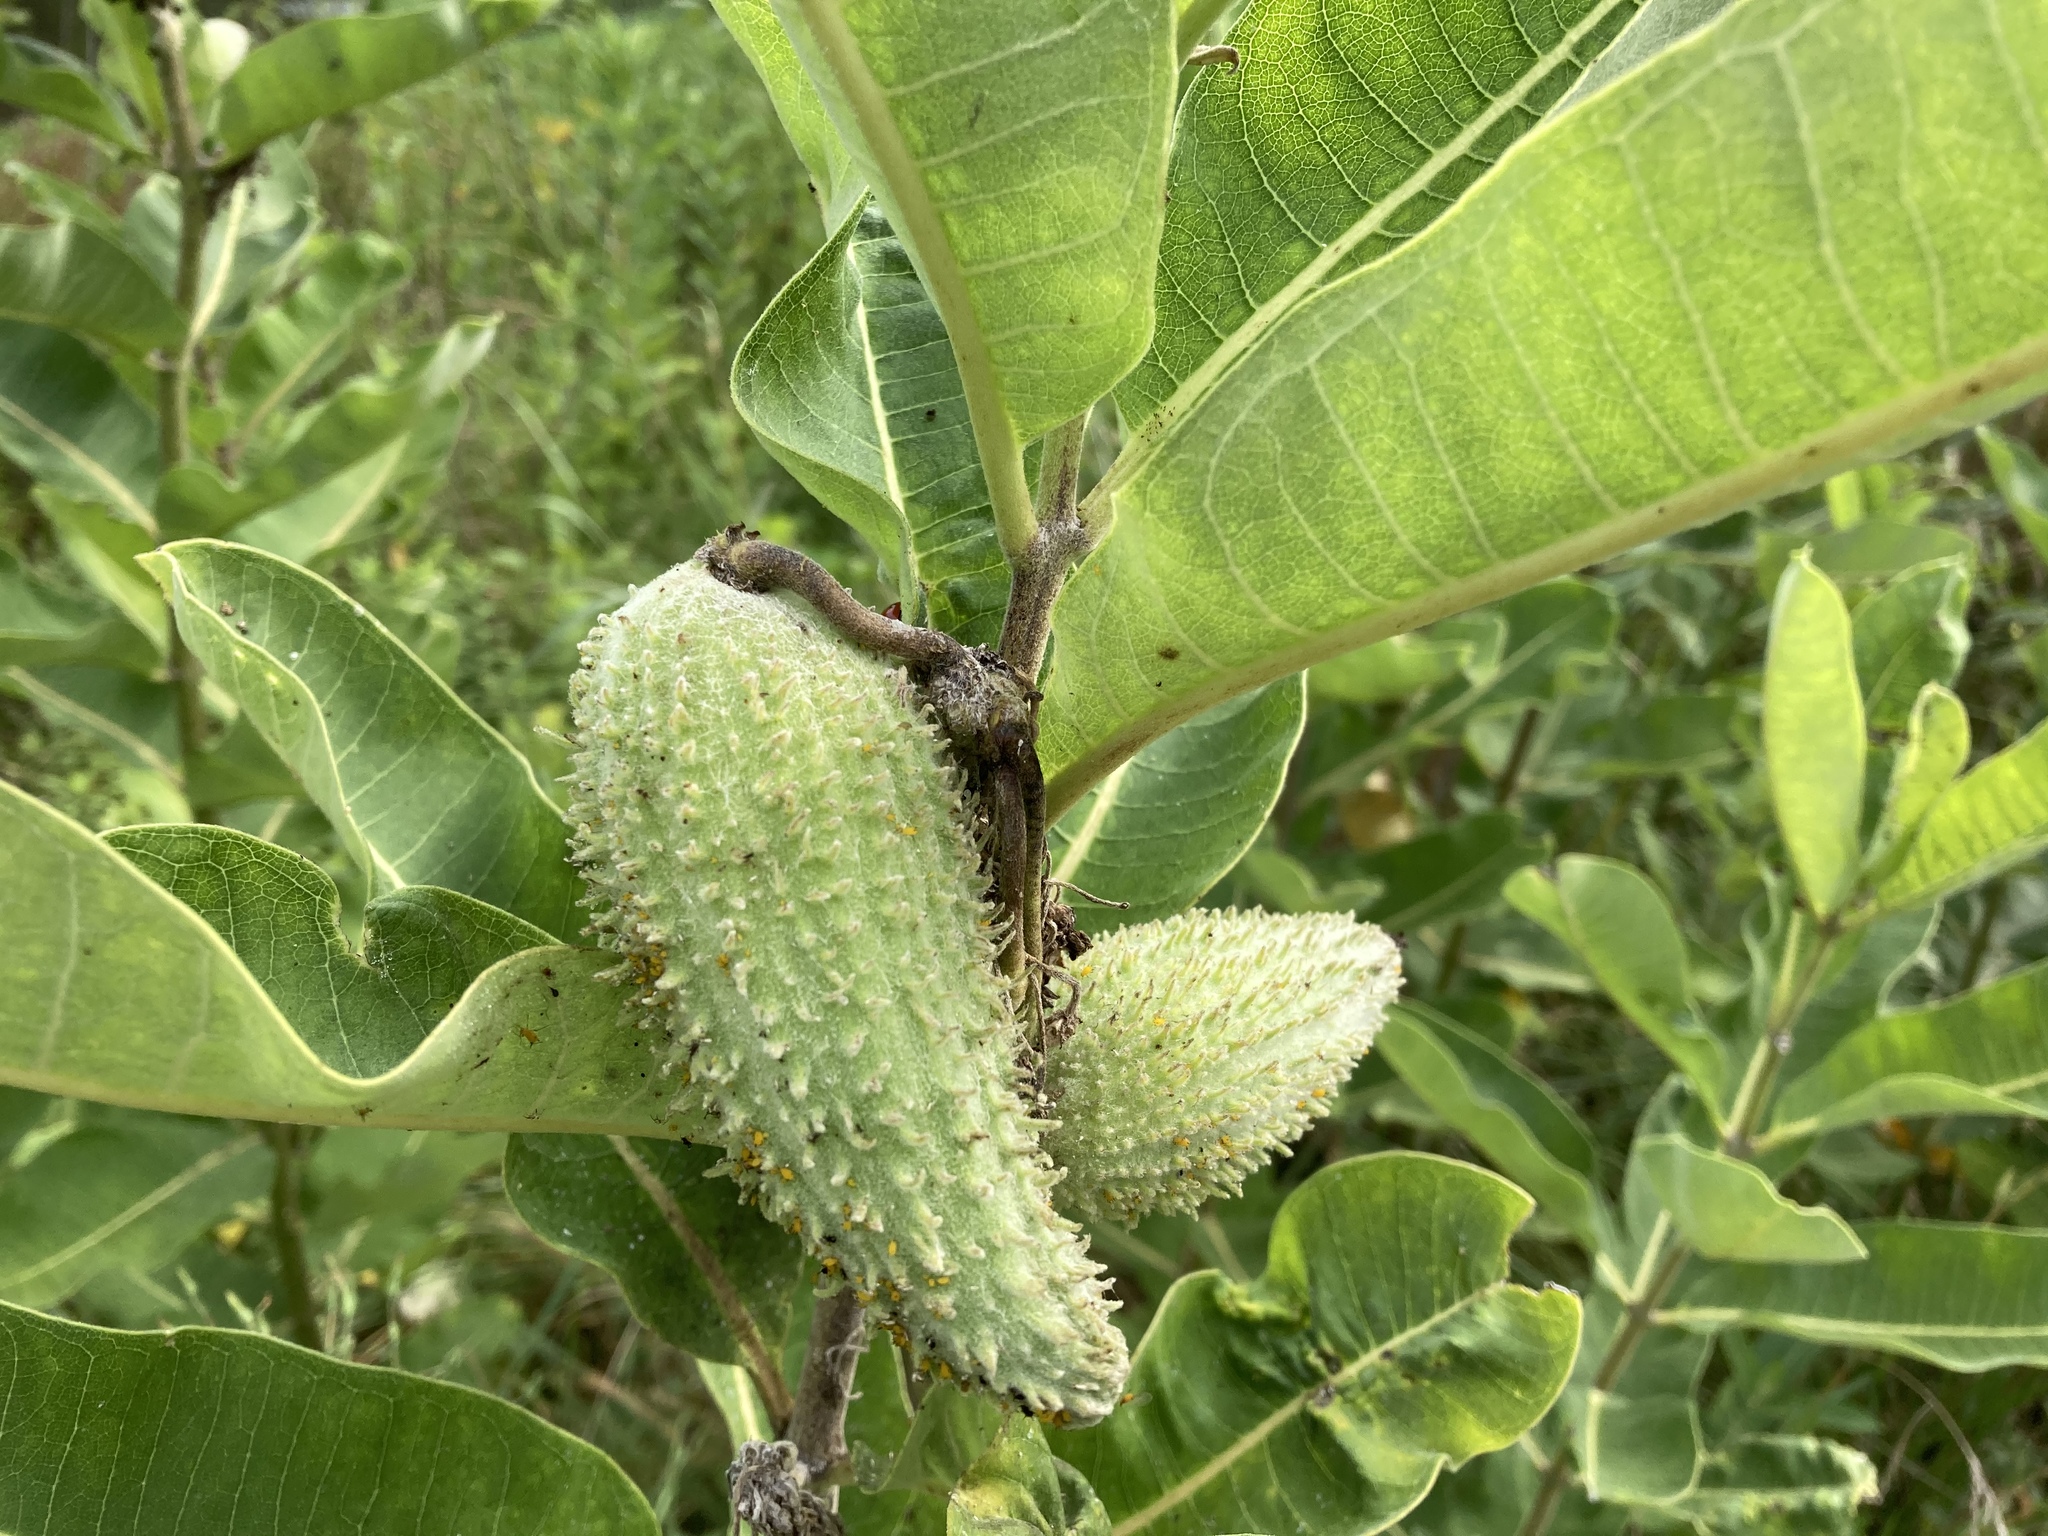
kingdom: Plantae
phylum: Tracheophyta
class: Magnoliopsida
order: Gentianales
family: Apocynaceae
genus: Asclepias
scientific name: Asclepias syriaca
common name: Common milkweed
